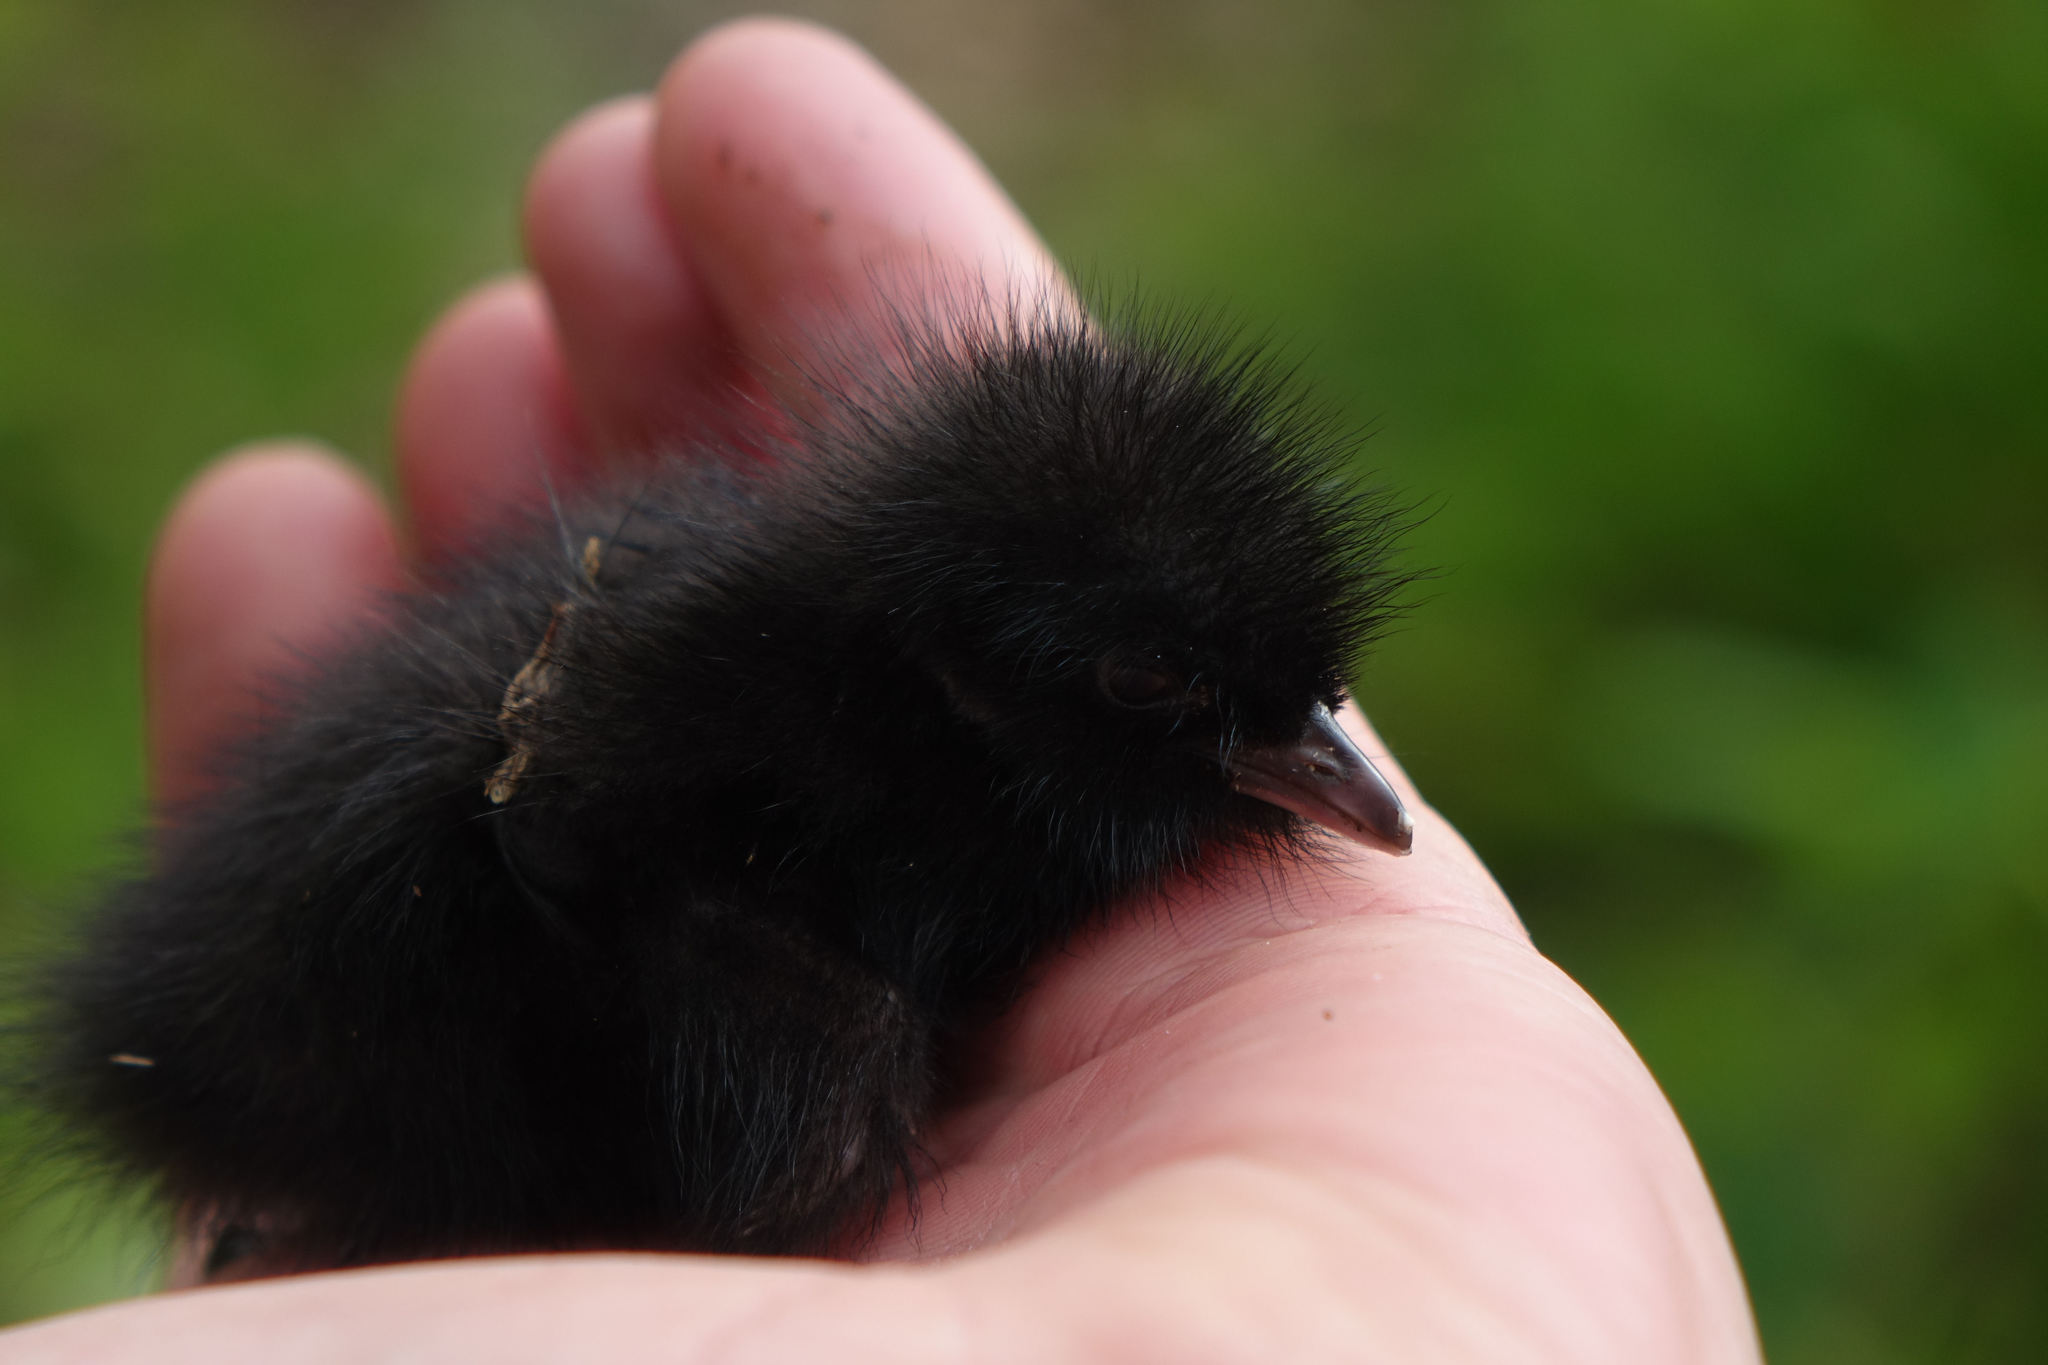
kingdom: Animalia
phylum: Chordata
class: Aves
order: Gruiformes
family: Rallidae
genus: Gallirallus
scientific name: Gallirallus philippensis
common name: Buff-banded rail
